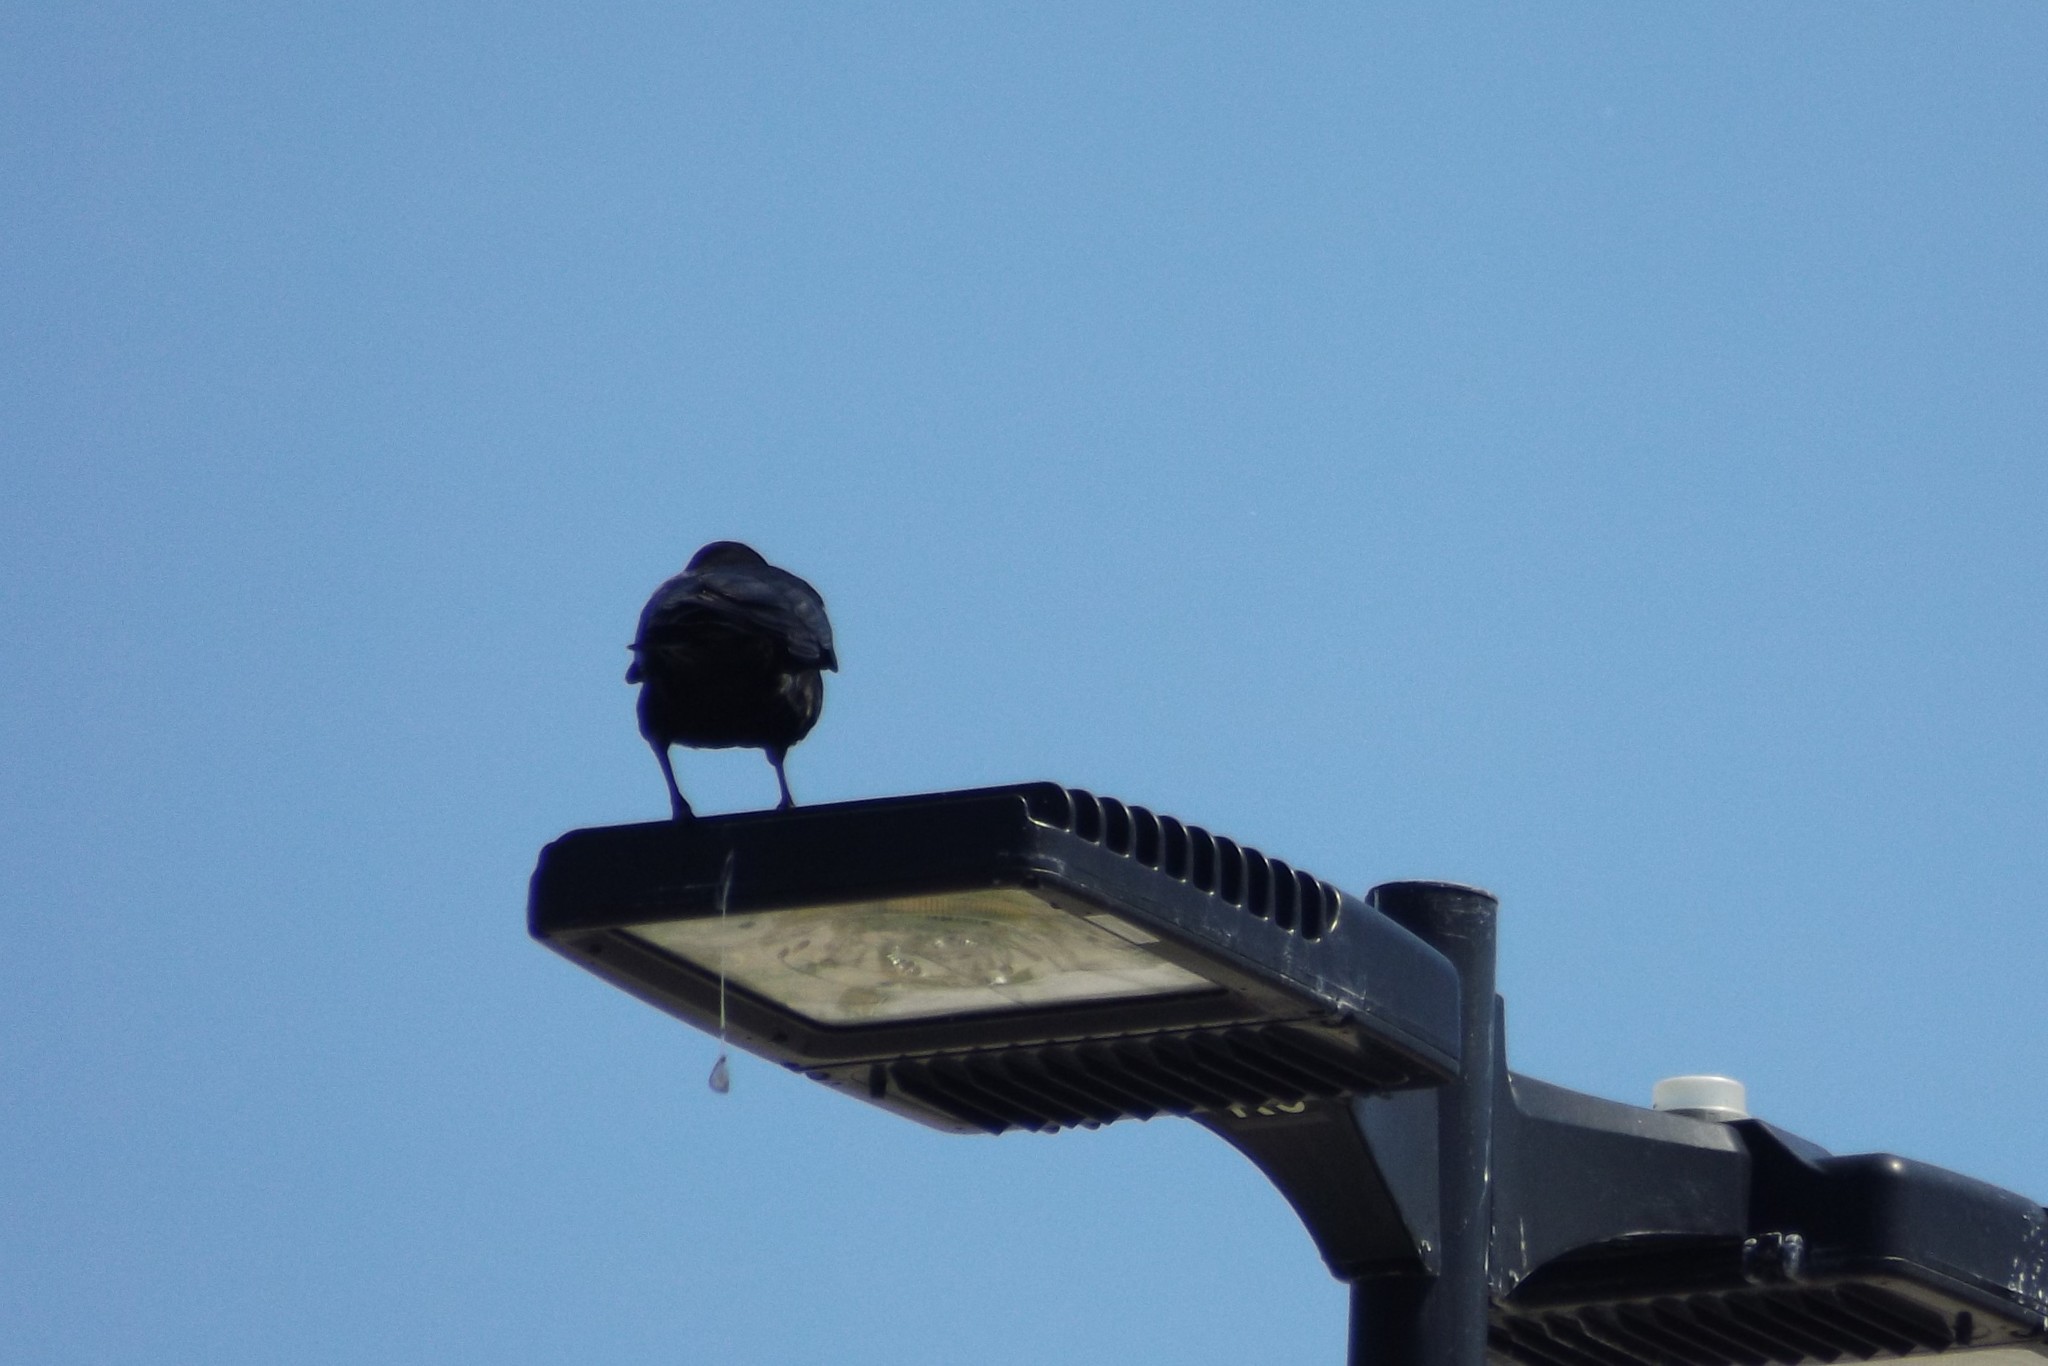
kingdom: Animalia
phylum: Chordata
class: Aves
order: Passeriformes
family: Corvidae
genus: Corvus
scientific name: Corvus ossifragus
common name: Fish crow
